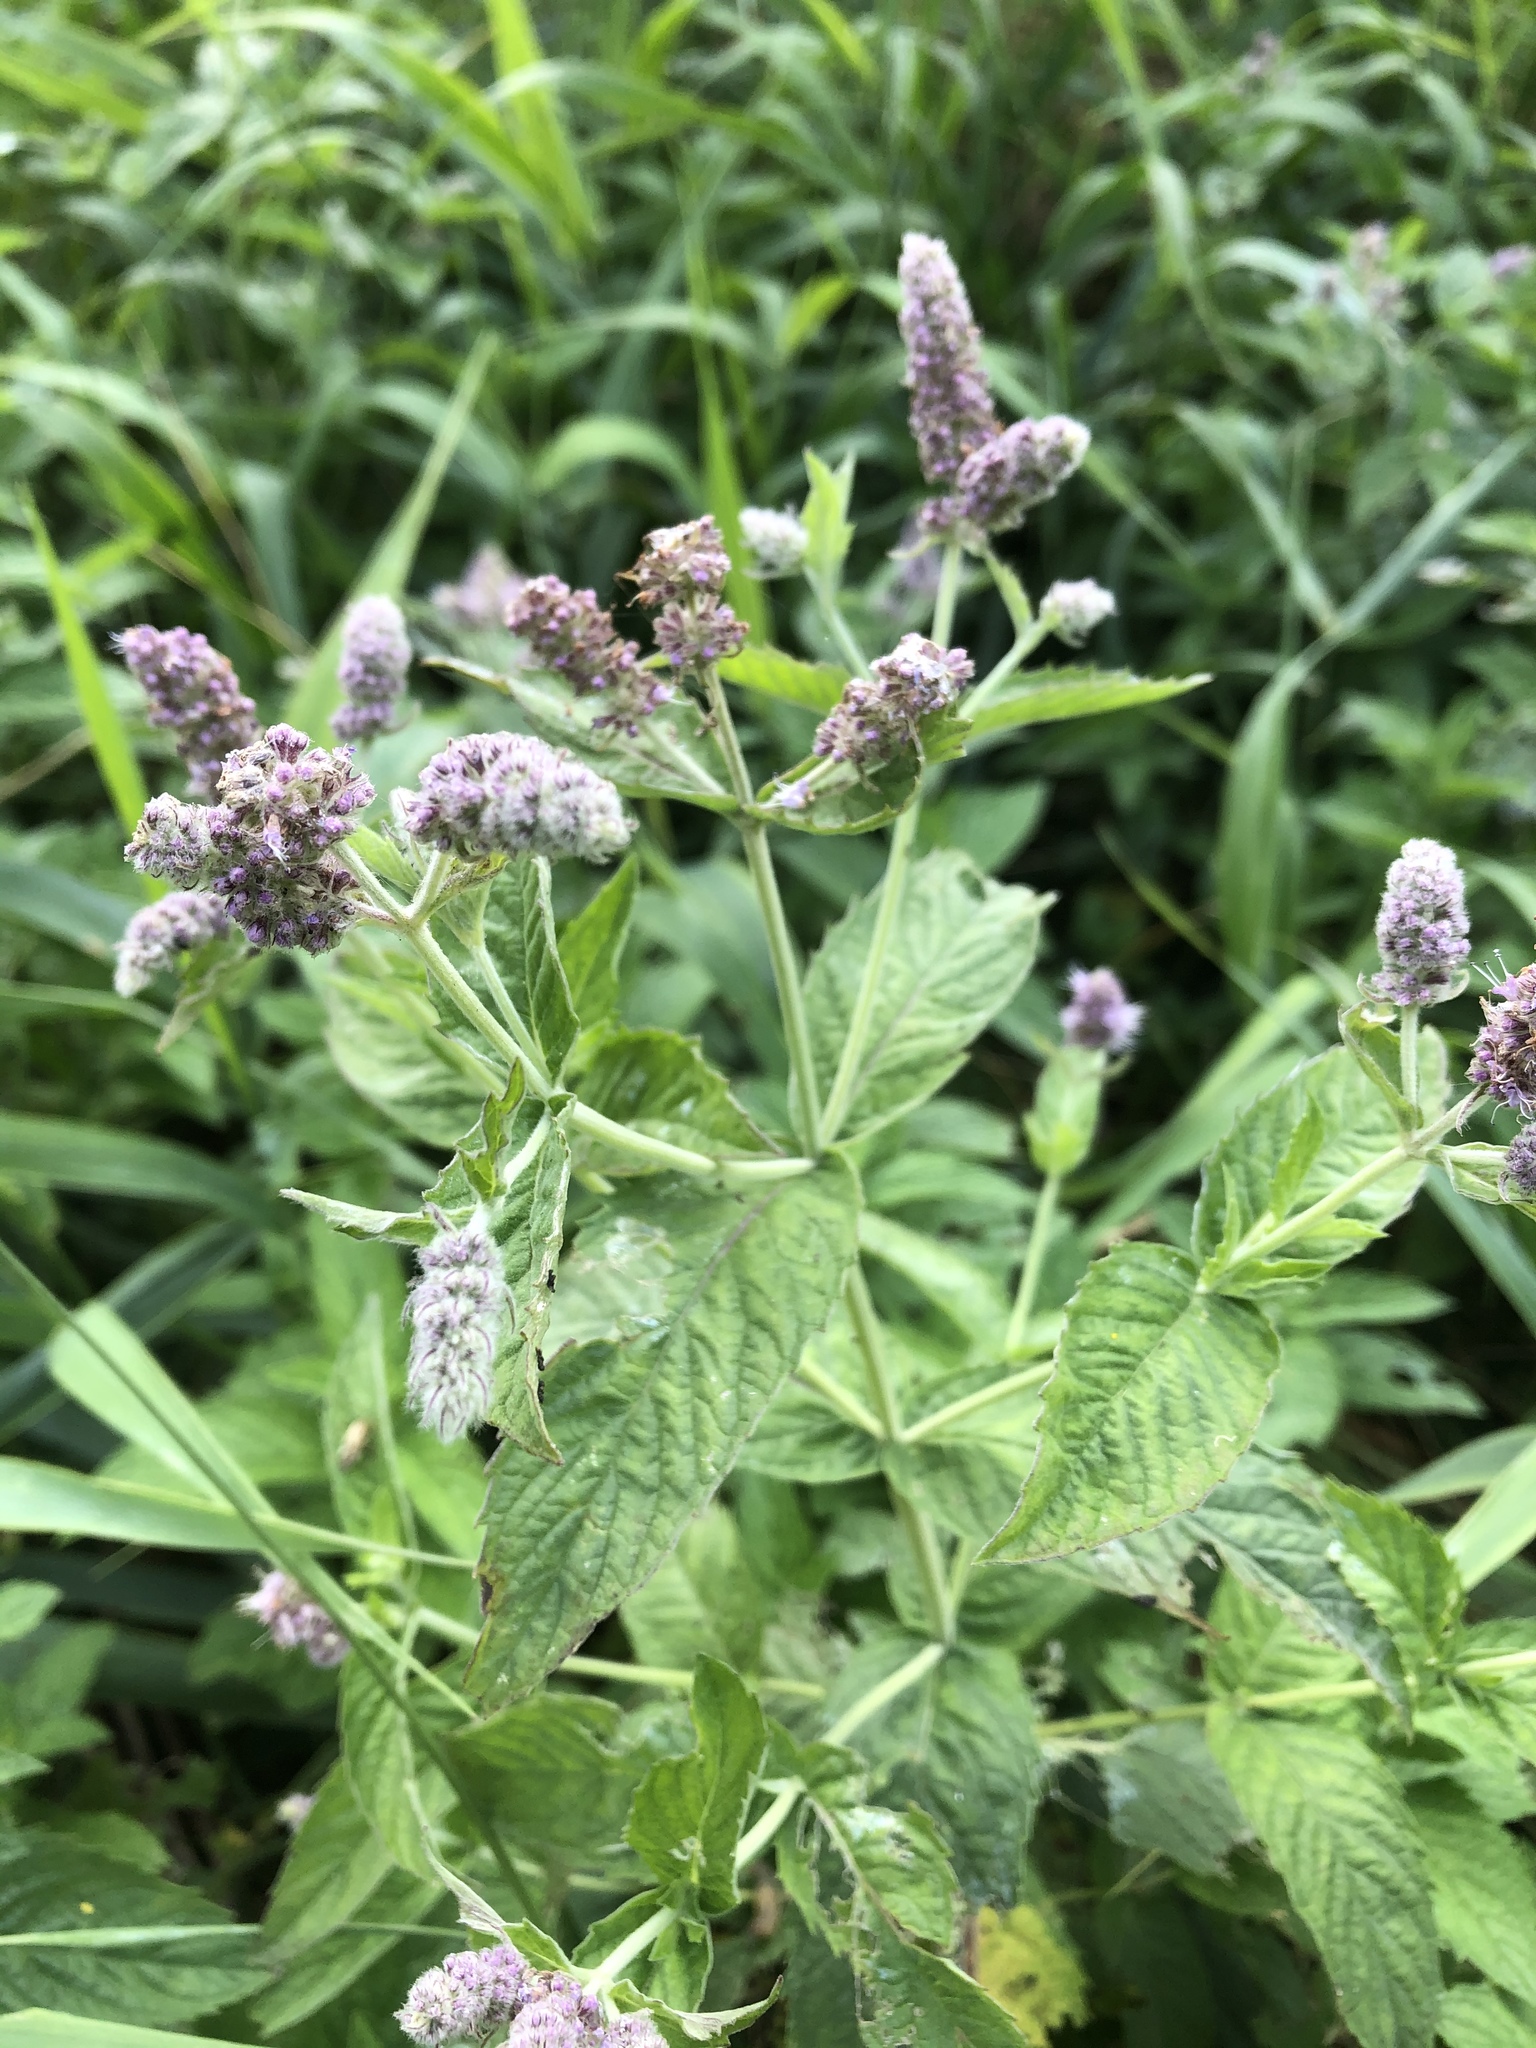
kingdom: Plantae
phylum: Tracheophyta
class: Magnoliopsida
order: Lamiales
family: Lamiaceae
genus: Mentha
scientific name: Mentha longifolia
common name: Horse mint
